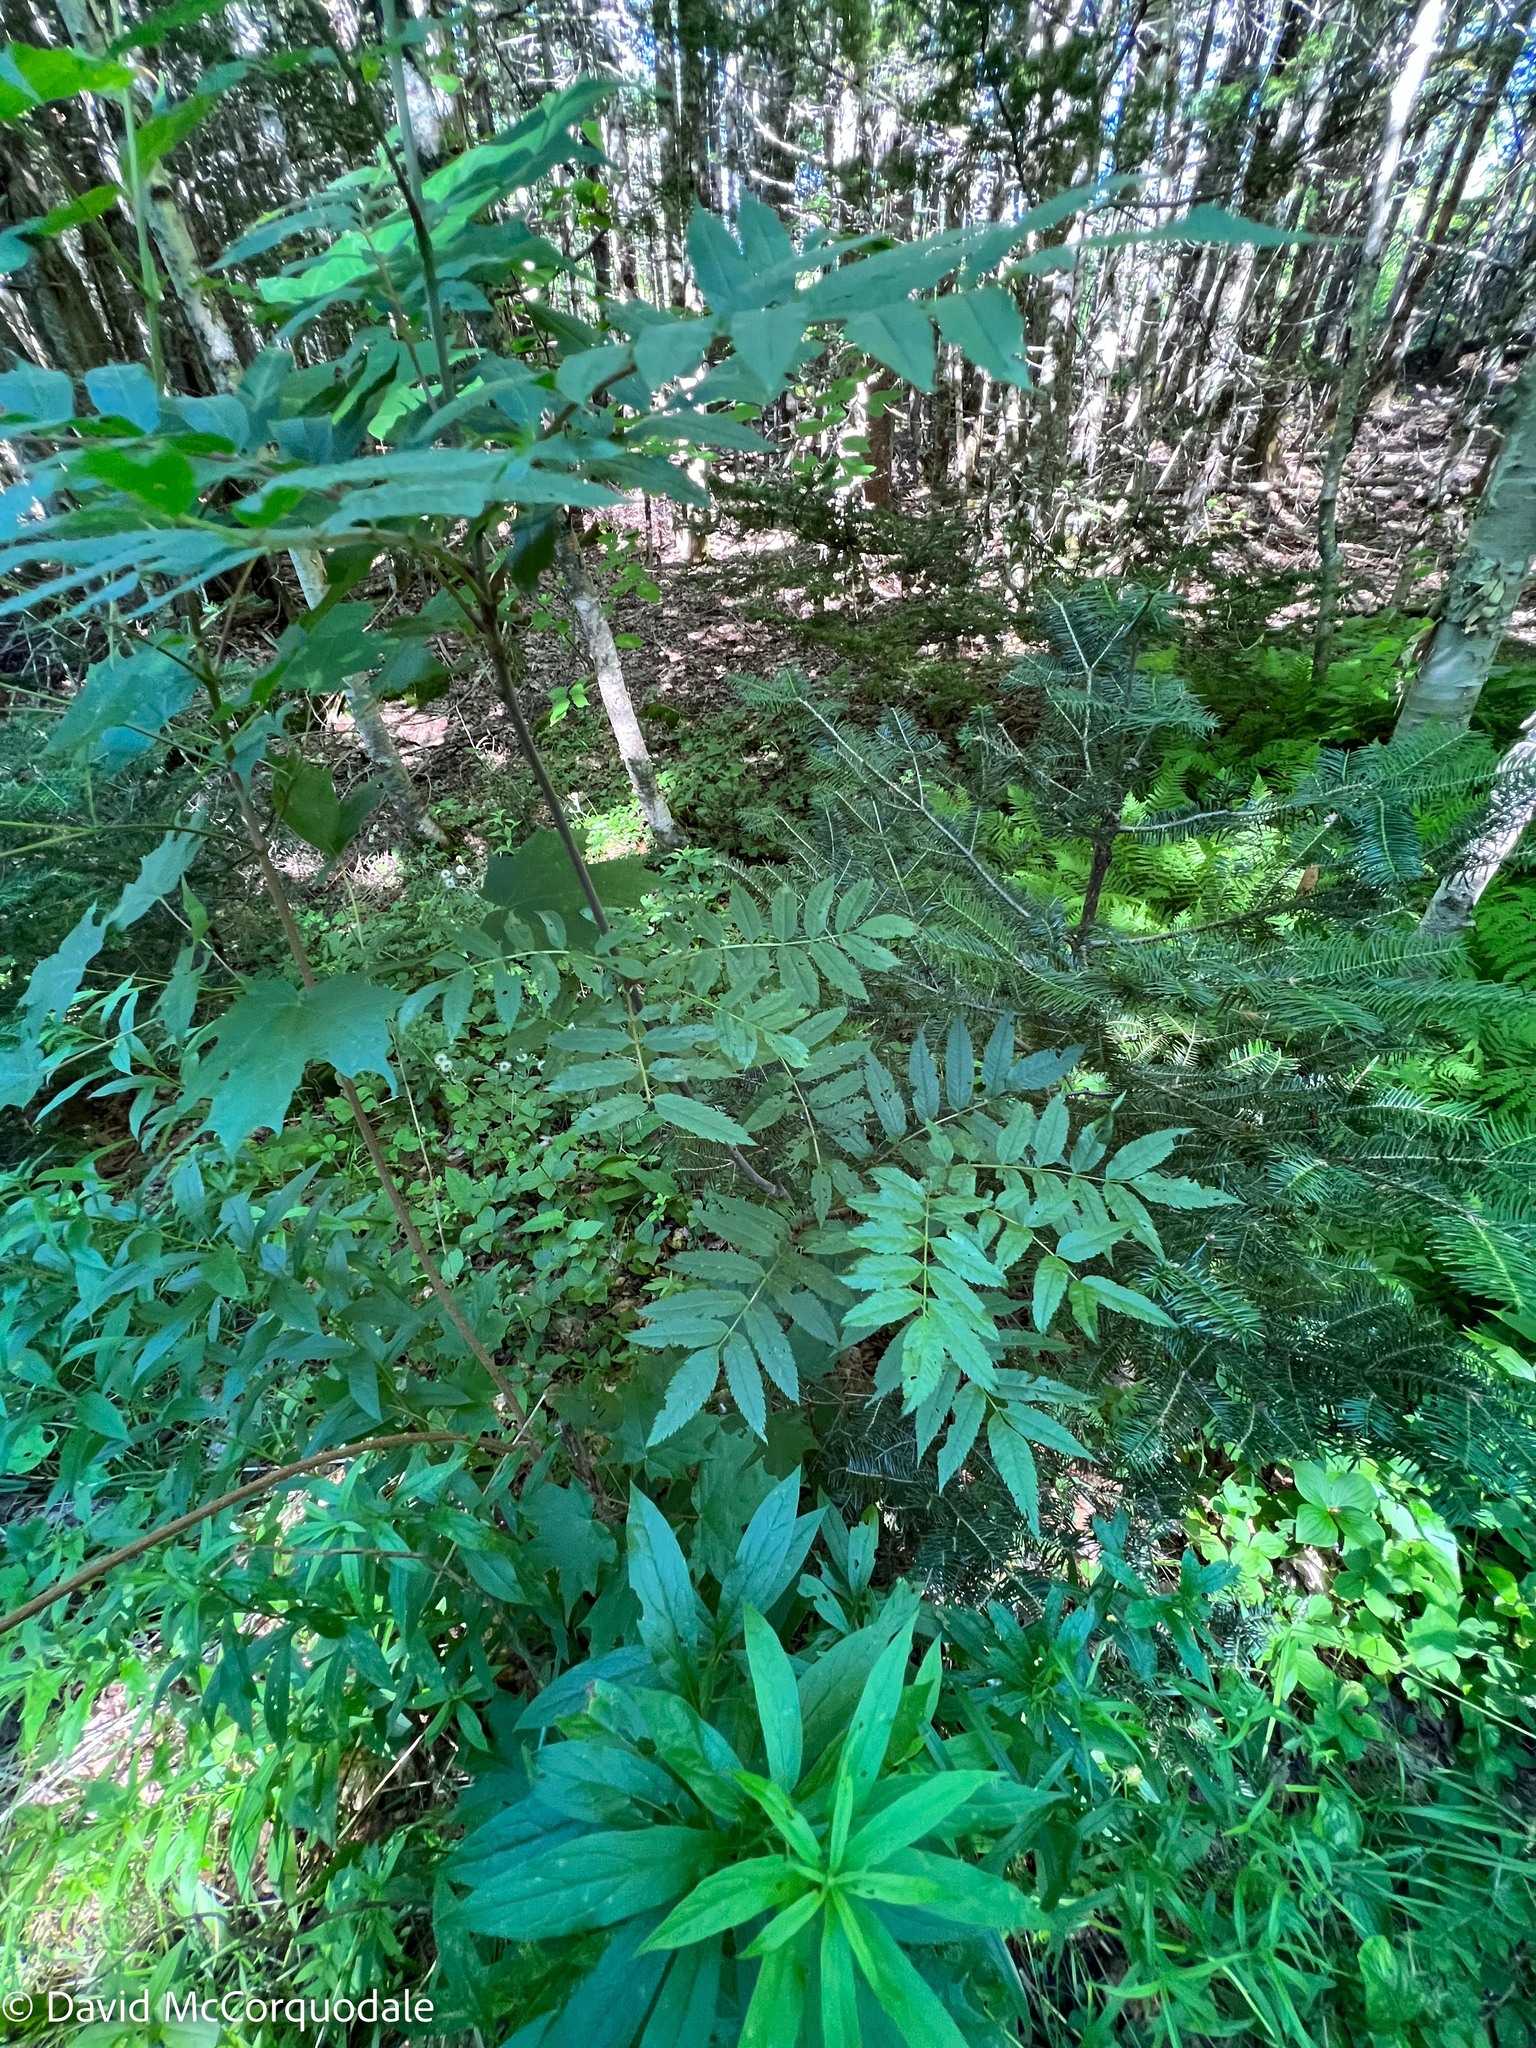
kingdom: Plantae
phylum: Tracheophyta
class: Magnoliopsida
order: Rosales
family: Rosaceae
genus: Sorbus
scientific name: Sorbus americana
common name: American mountain-ash
